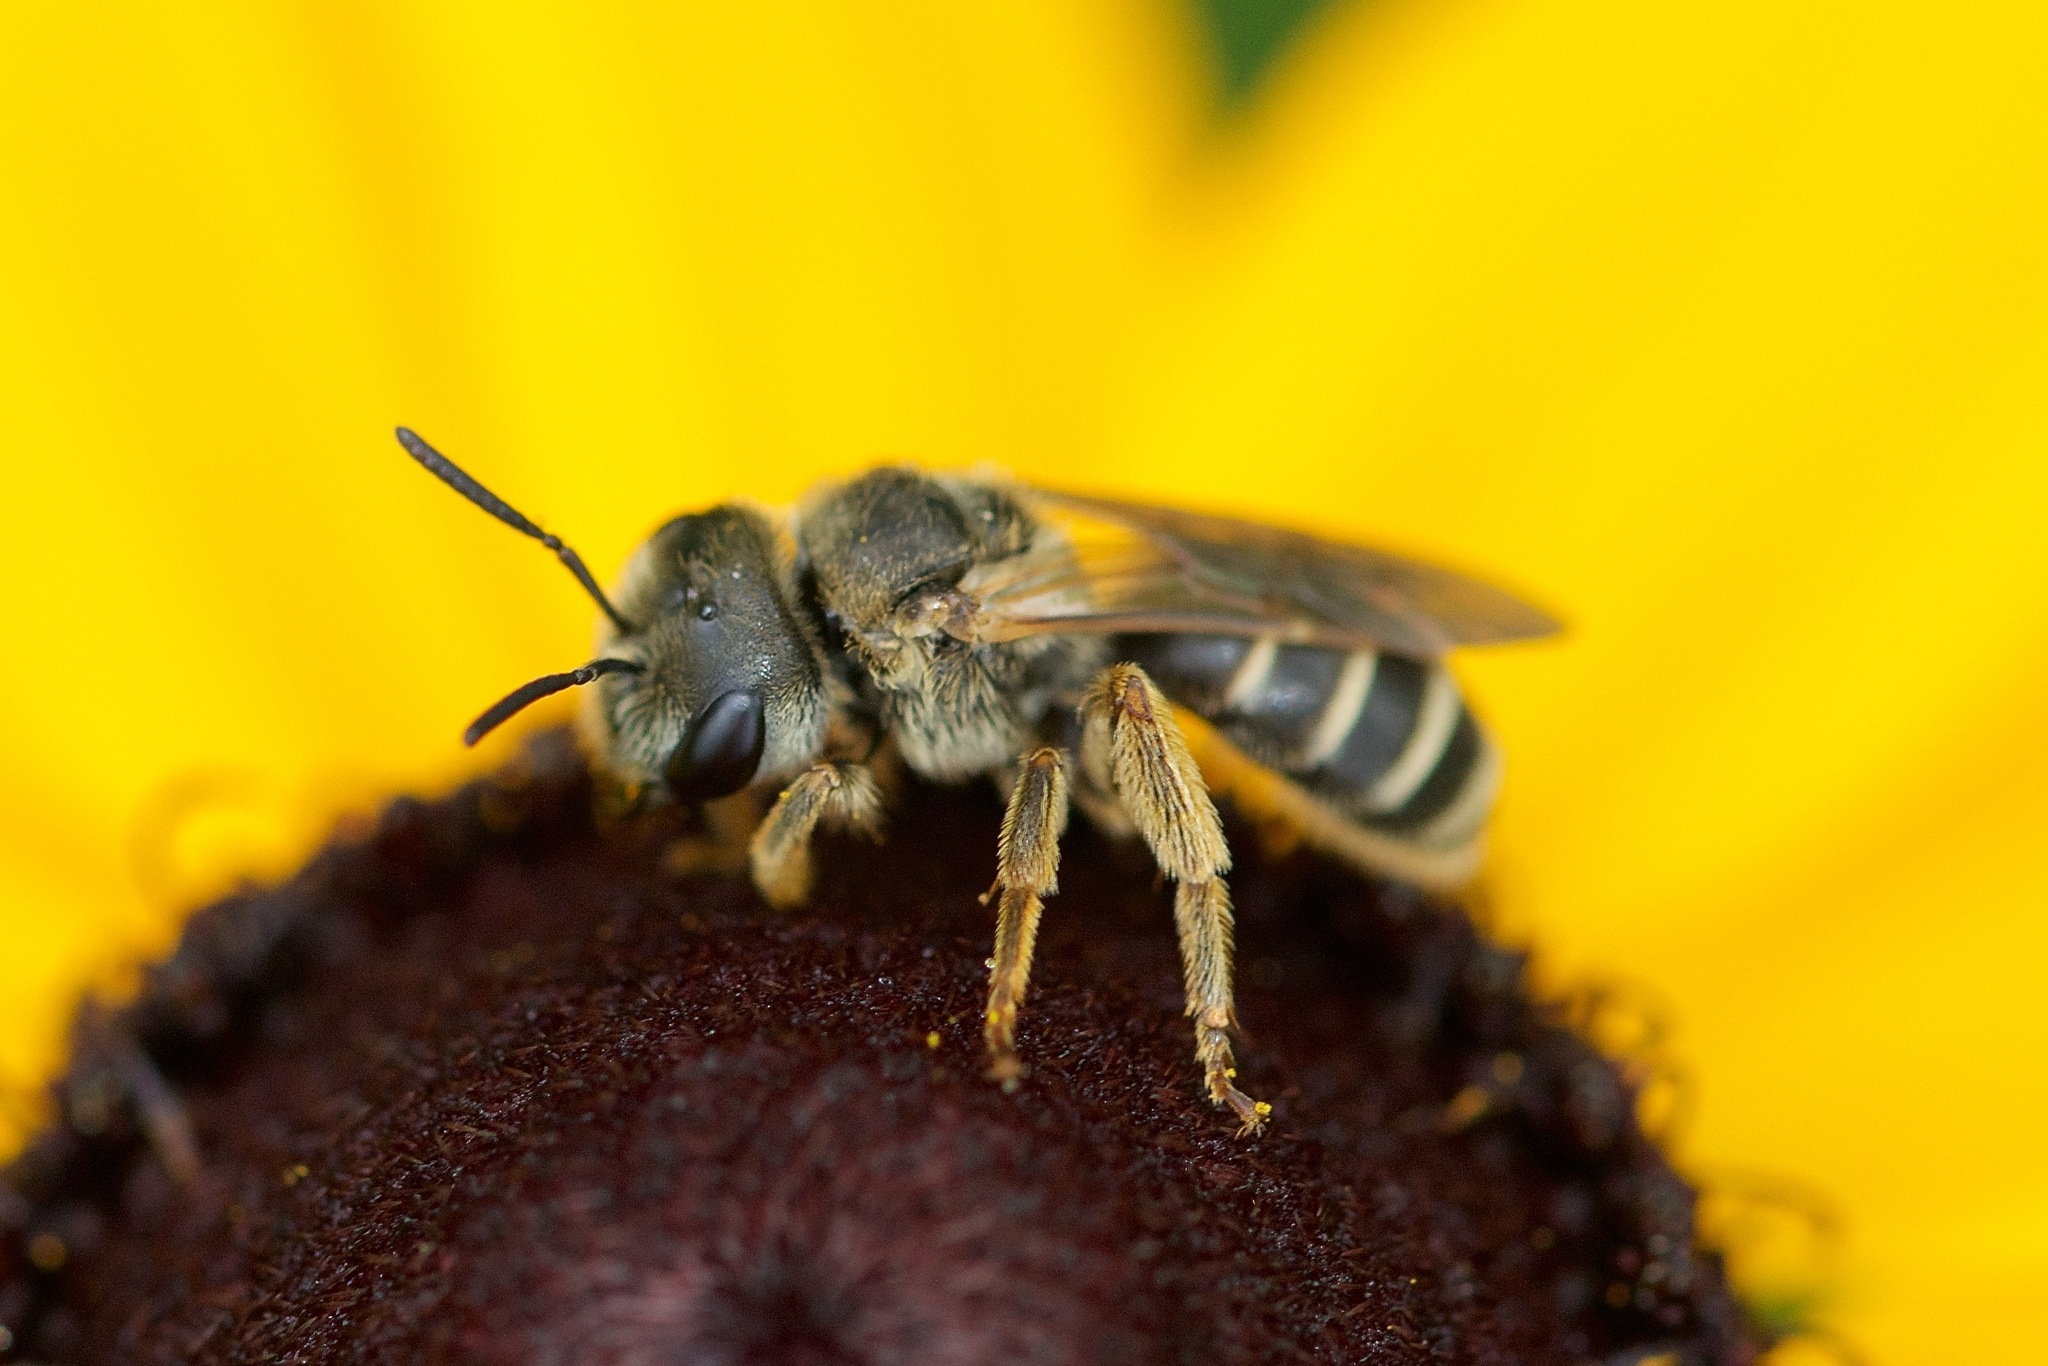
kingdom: Animalia
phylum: Arthropoda
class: Insecta
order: Hymenoptera
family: Halictidae
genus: Halictus
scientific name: Halictus ligatus
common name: Ligated furrow bee
